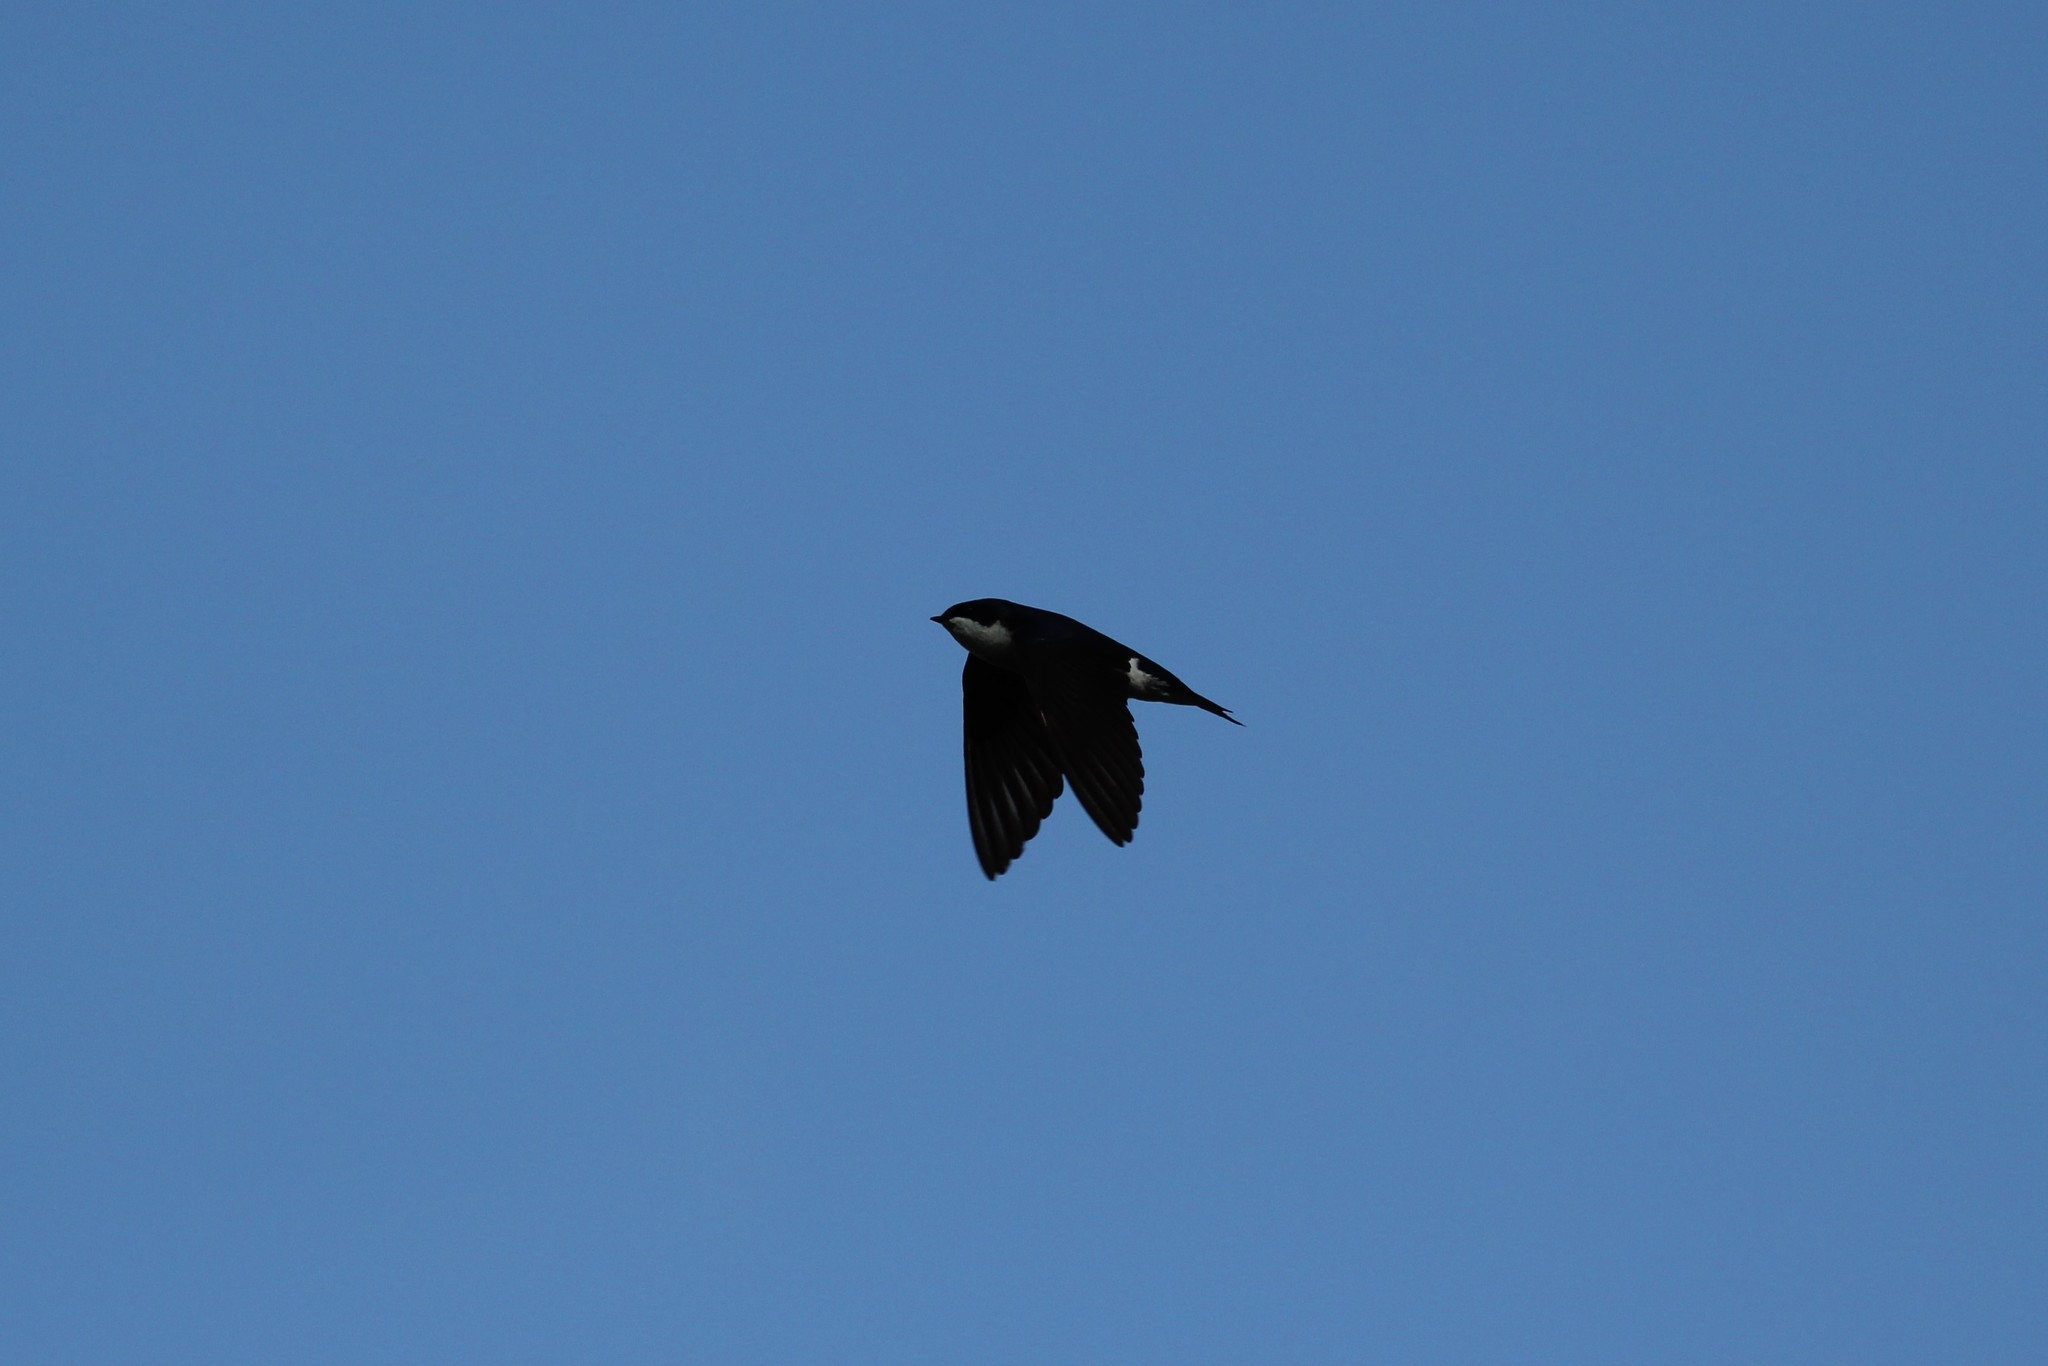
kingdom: Animalia
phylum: Chordata
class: Aves
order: Passeriformes
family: Hirundinidae
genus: Tachycineta
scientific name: Tachycineta bicolor
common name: Tree swallow
